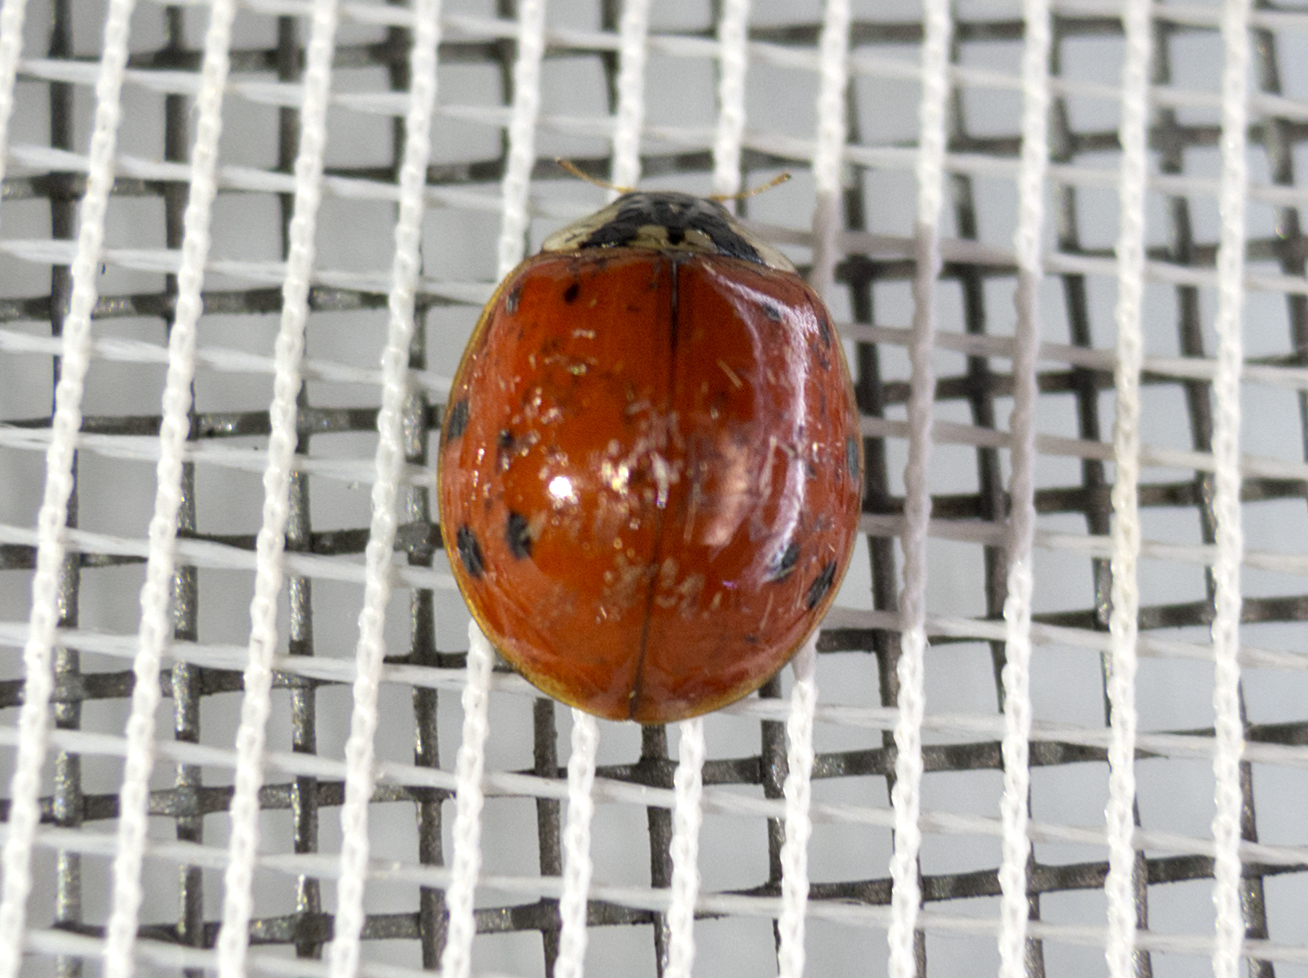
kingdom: Animalia
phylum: Arthropoda
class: Insecta
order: Coleoptera
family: Coccinellidae
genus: Harmonia
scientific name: Harmonia axyridis
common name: Harlequin ladybird
